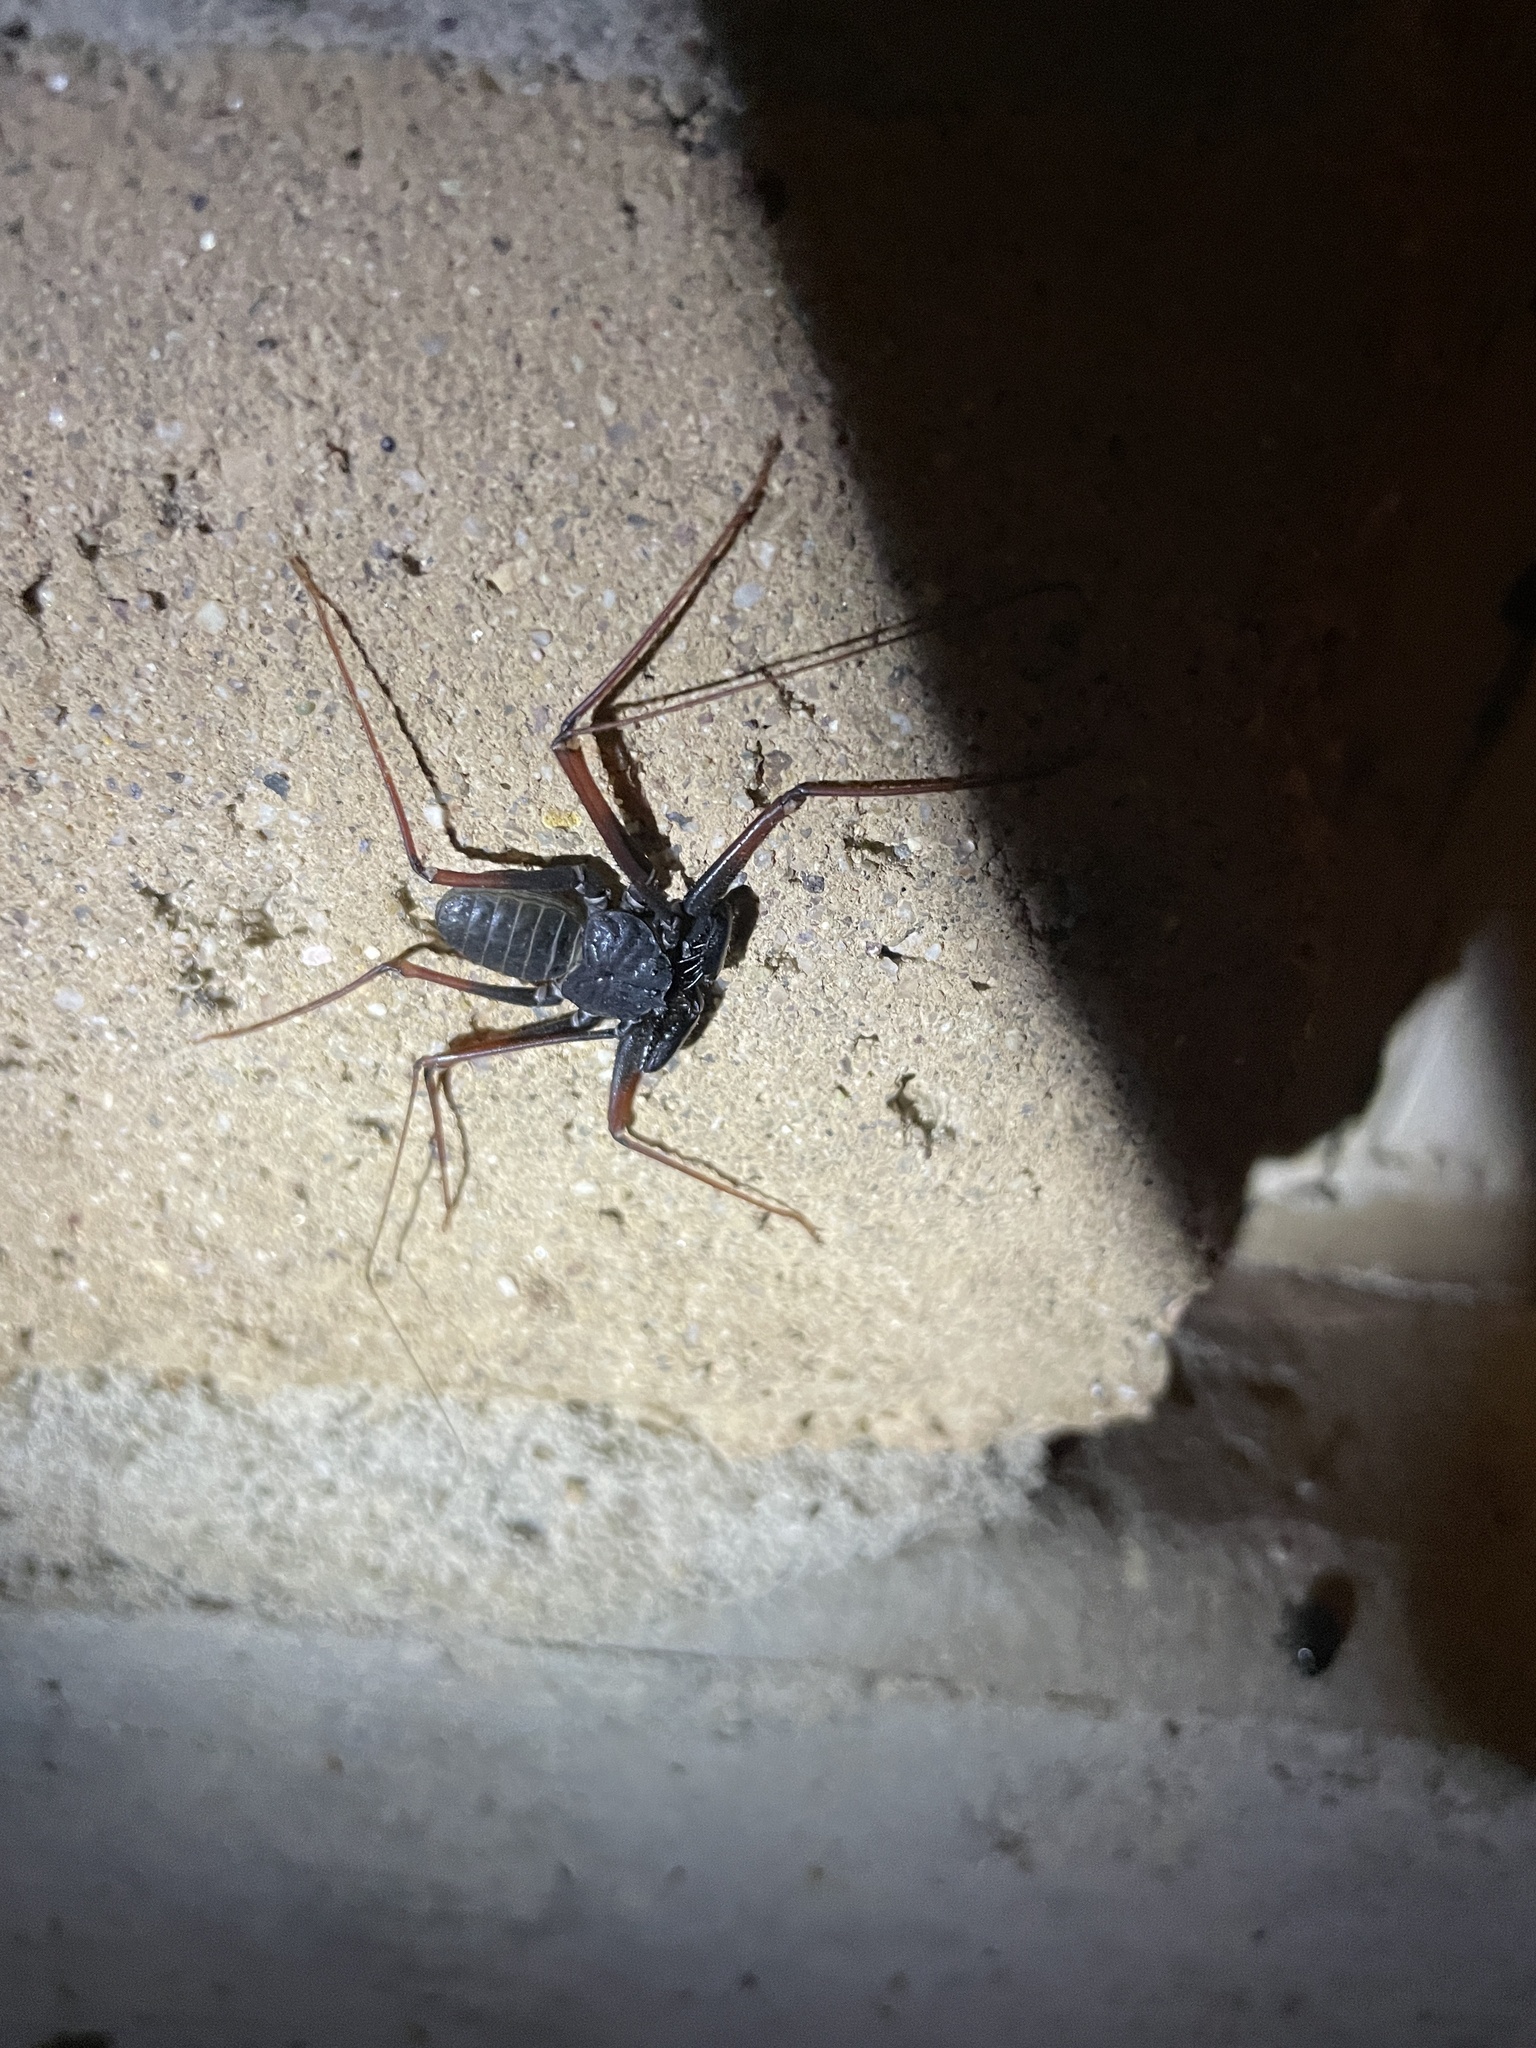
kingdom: Animalia
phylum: Arthropoda
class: Arachnida
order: Amblypygi
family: Phrynidae
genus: Paraphrynus
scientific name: Paraphrynus carolynae
